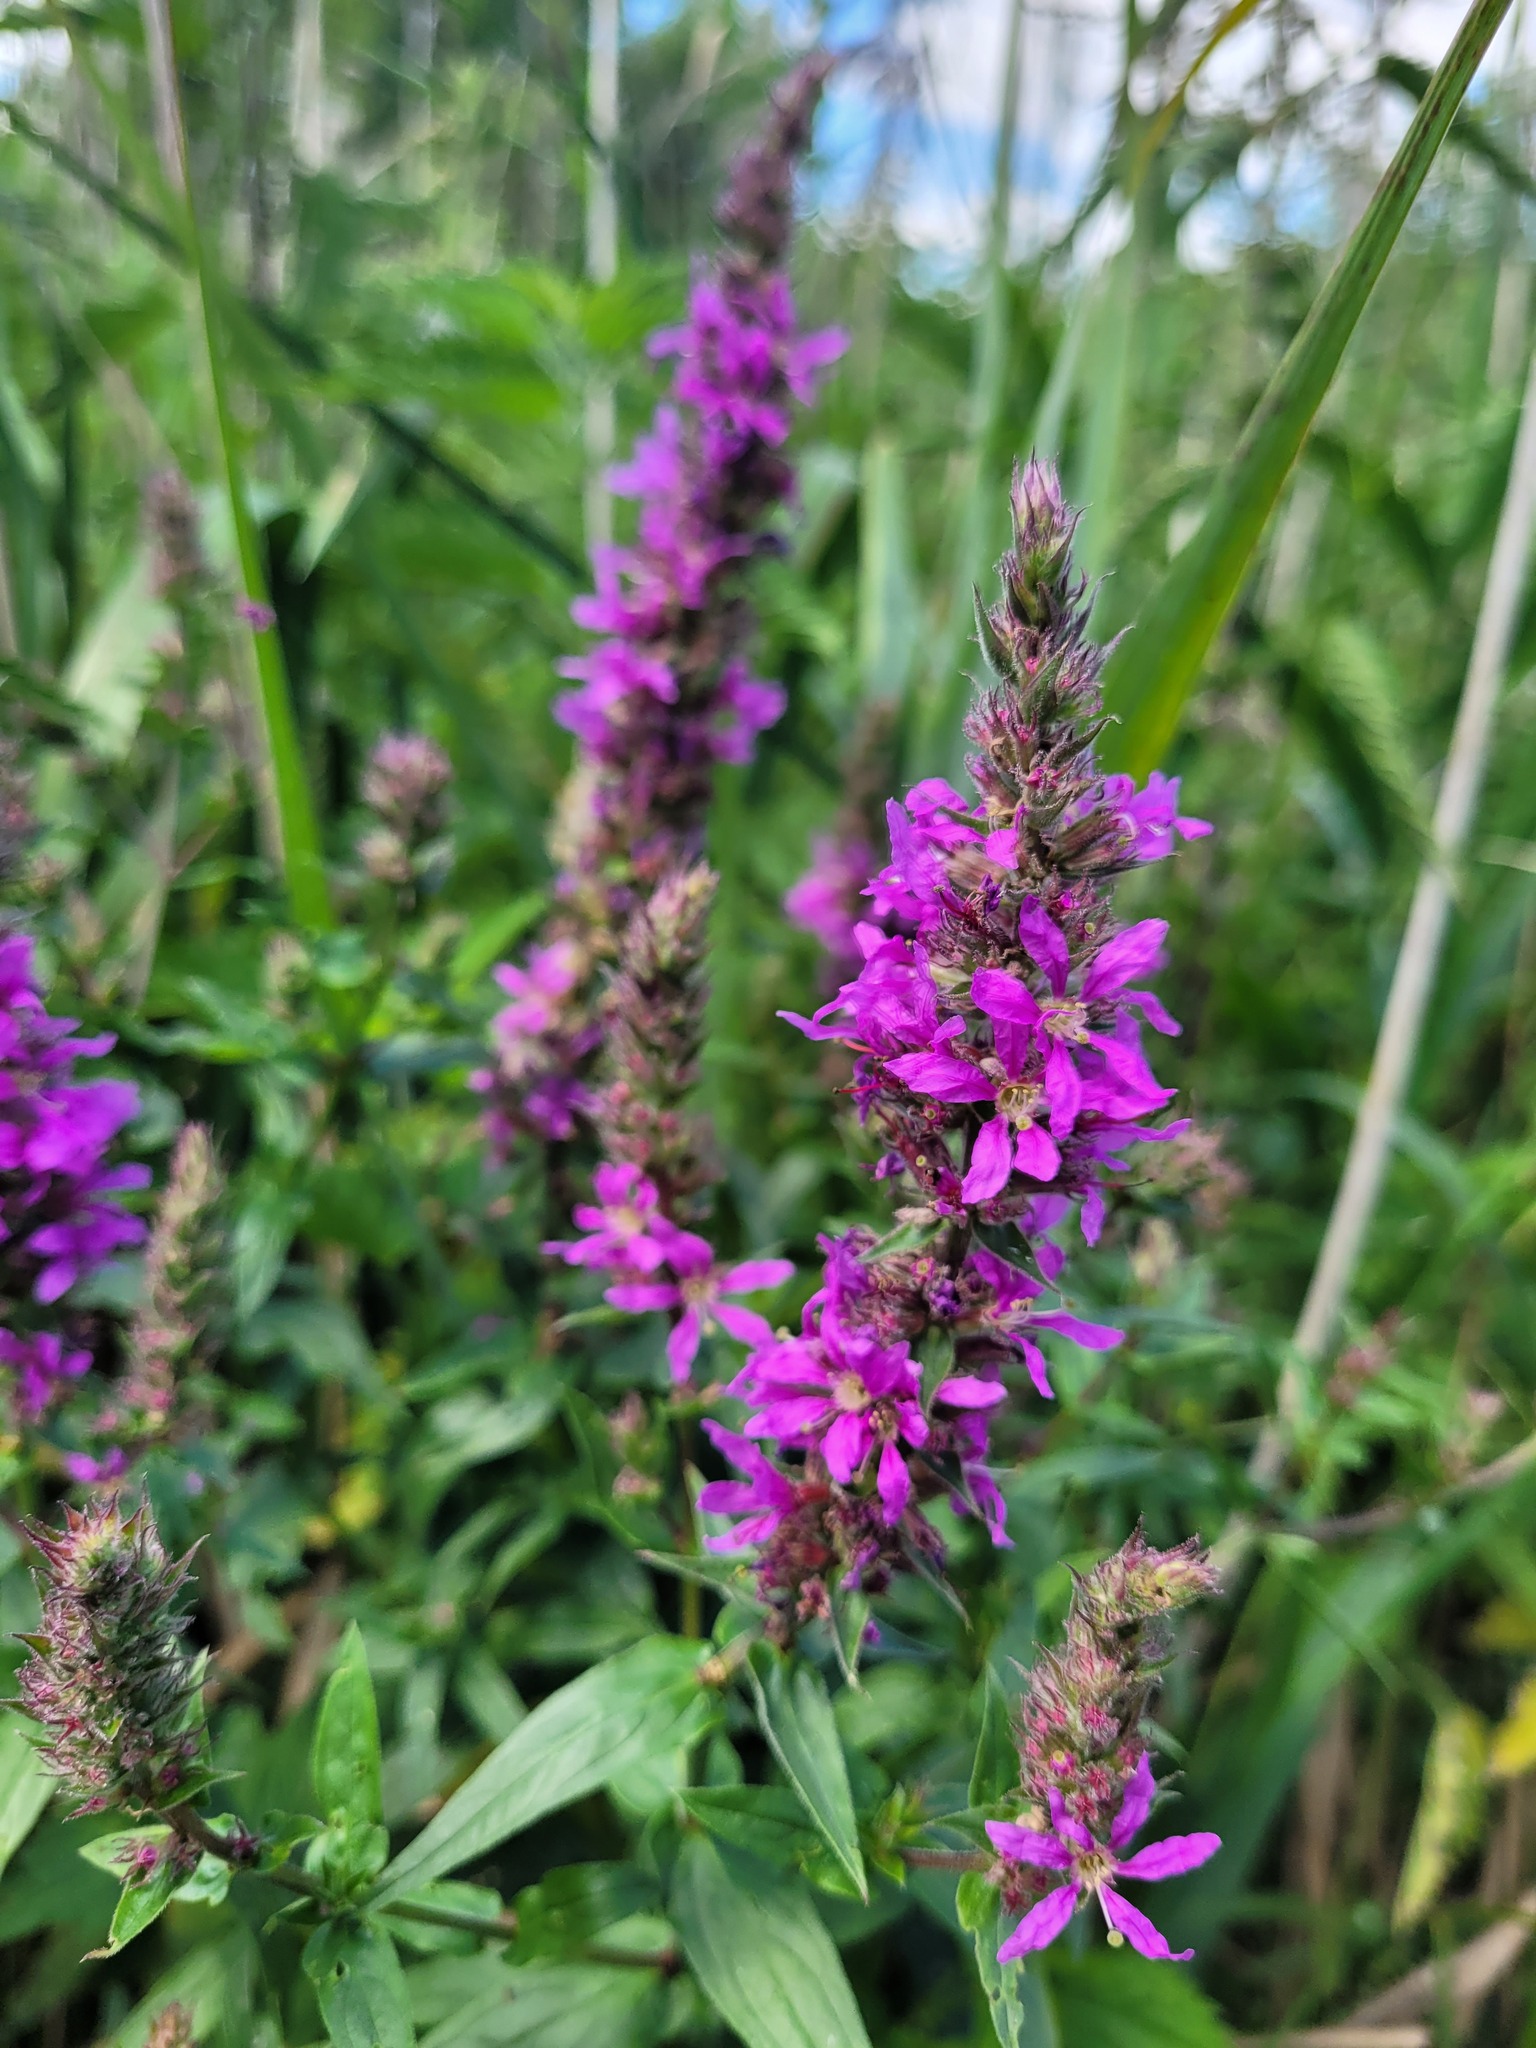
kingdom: Plantae
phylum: Tracheophyta
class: Magnoliopsida
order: Myrtales
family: Lythraceae
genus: Lythrum
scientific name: Lythrum salicaria
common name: Purple loosestrife
